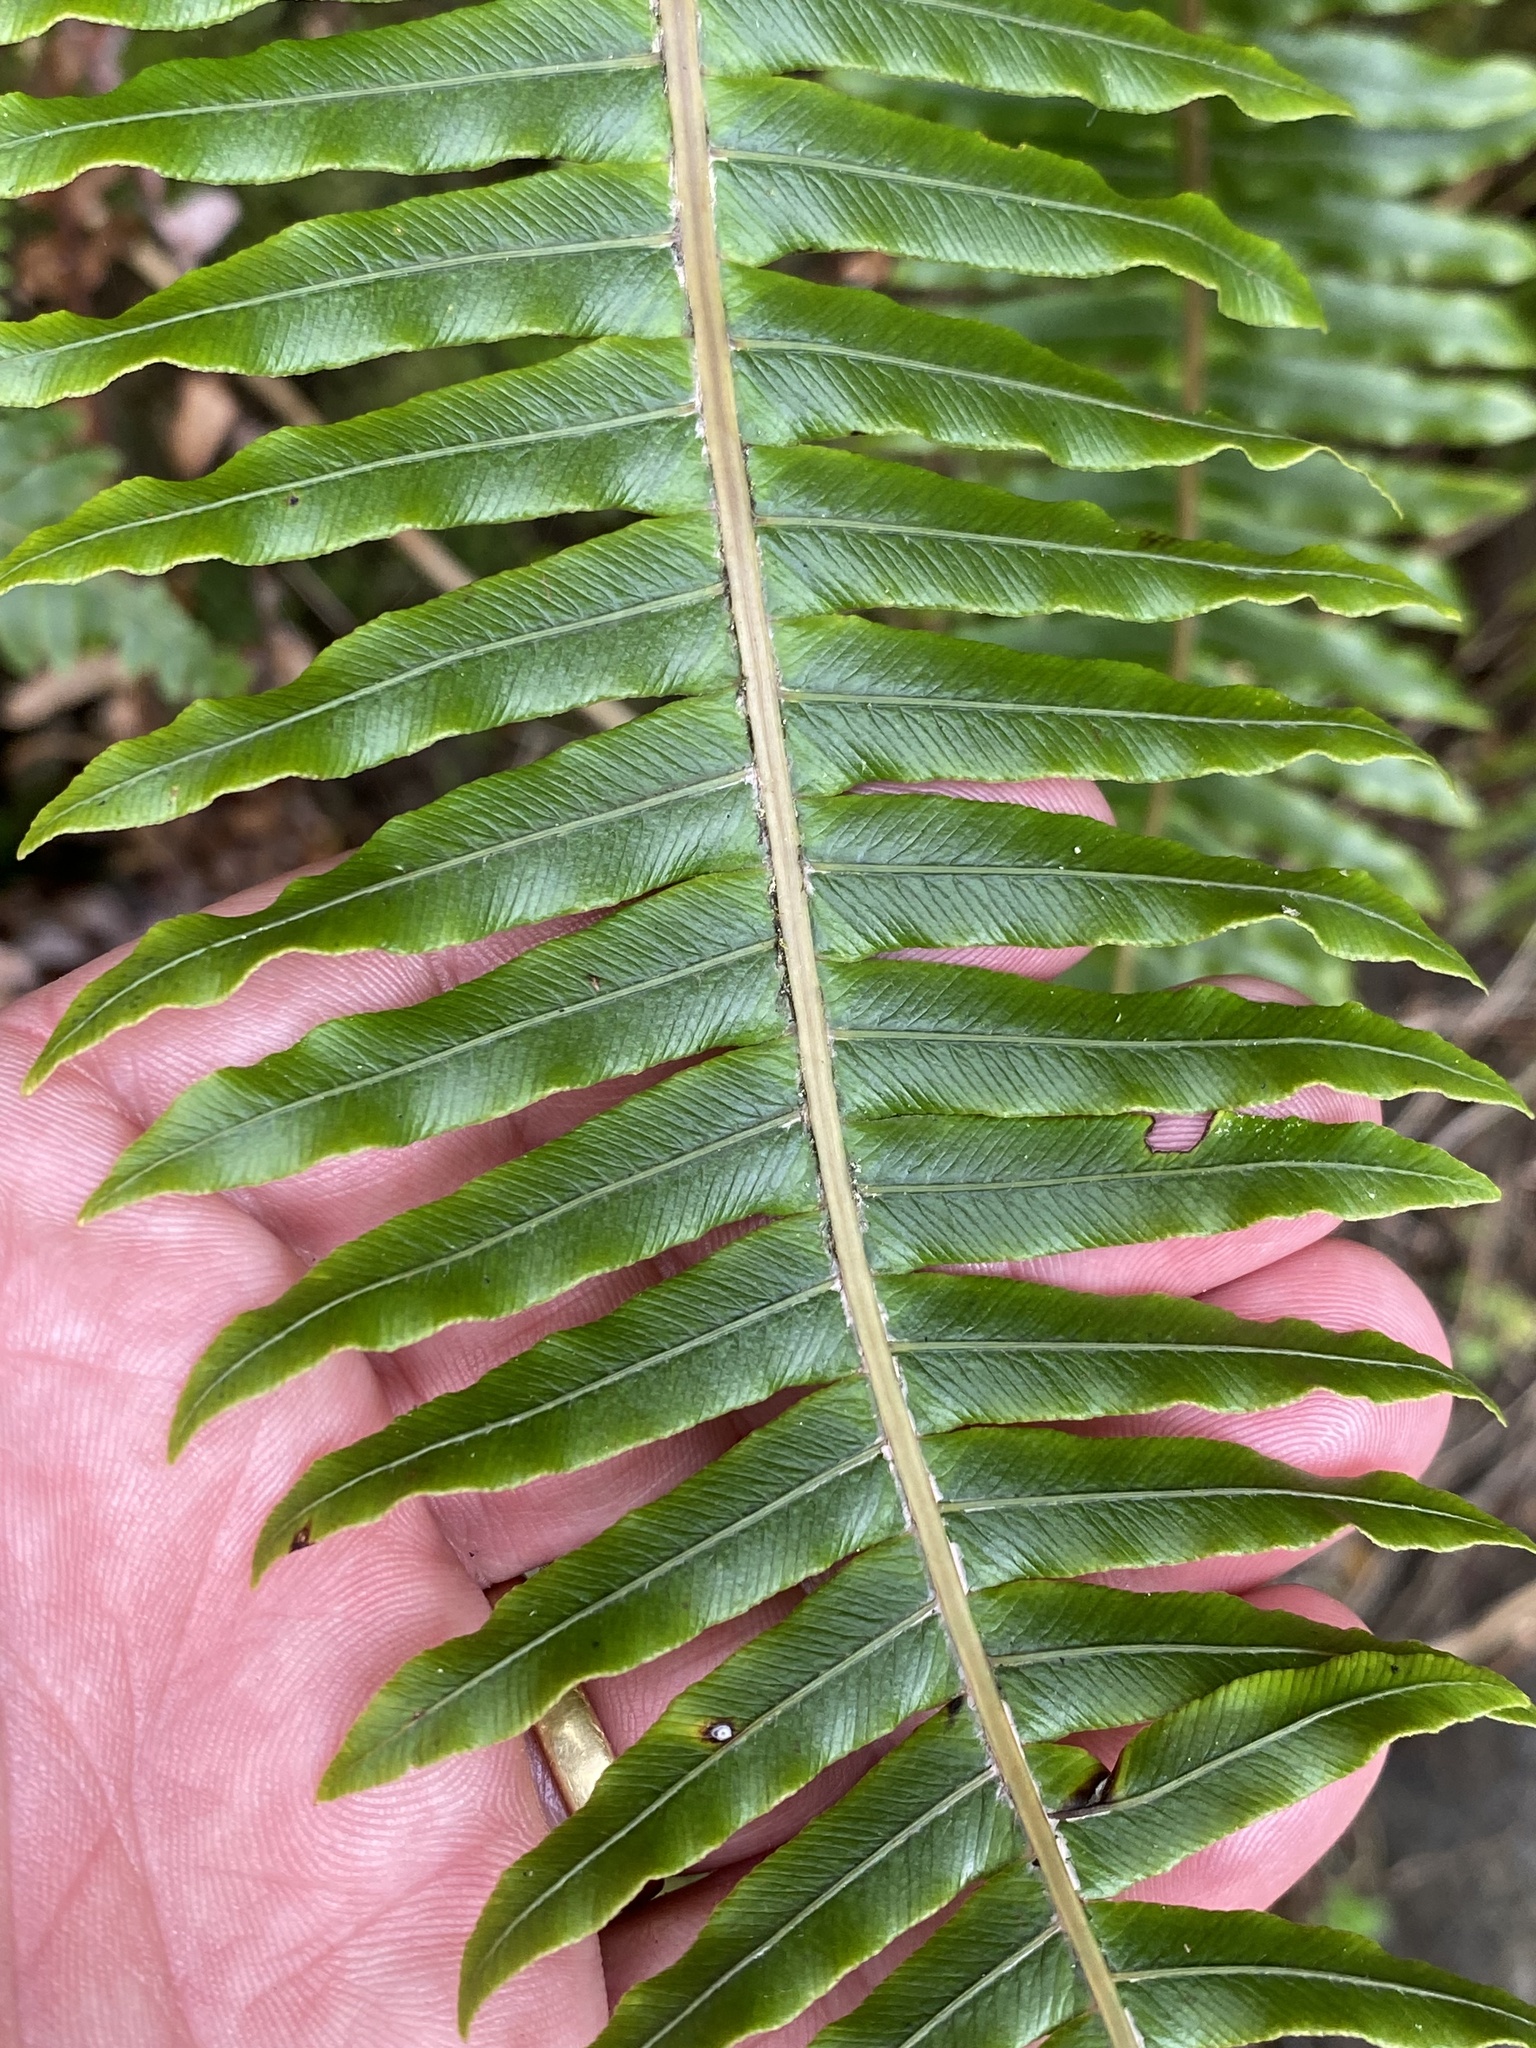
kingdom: Plantae
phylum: Tracheophyta
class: Polypodiopsida
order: Polypodiales
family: Blechnaceae
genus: Lomaria
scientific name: Lomaria discolor
